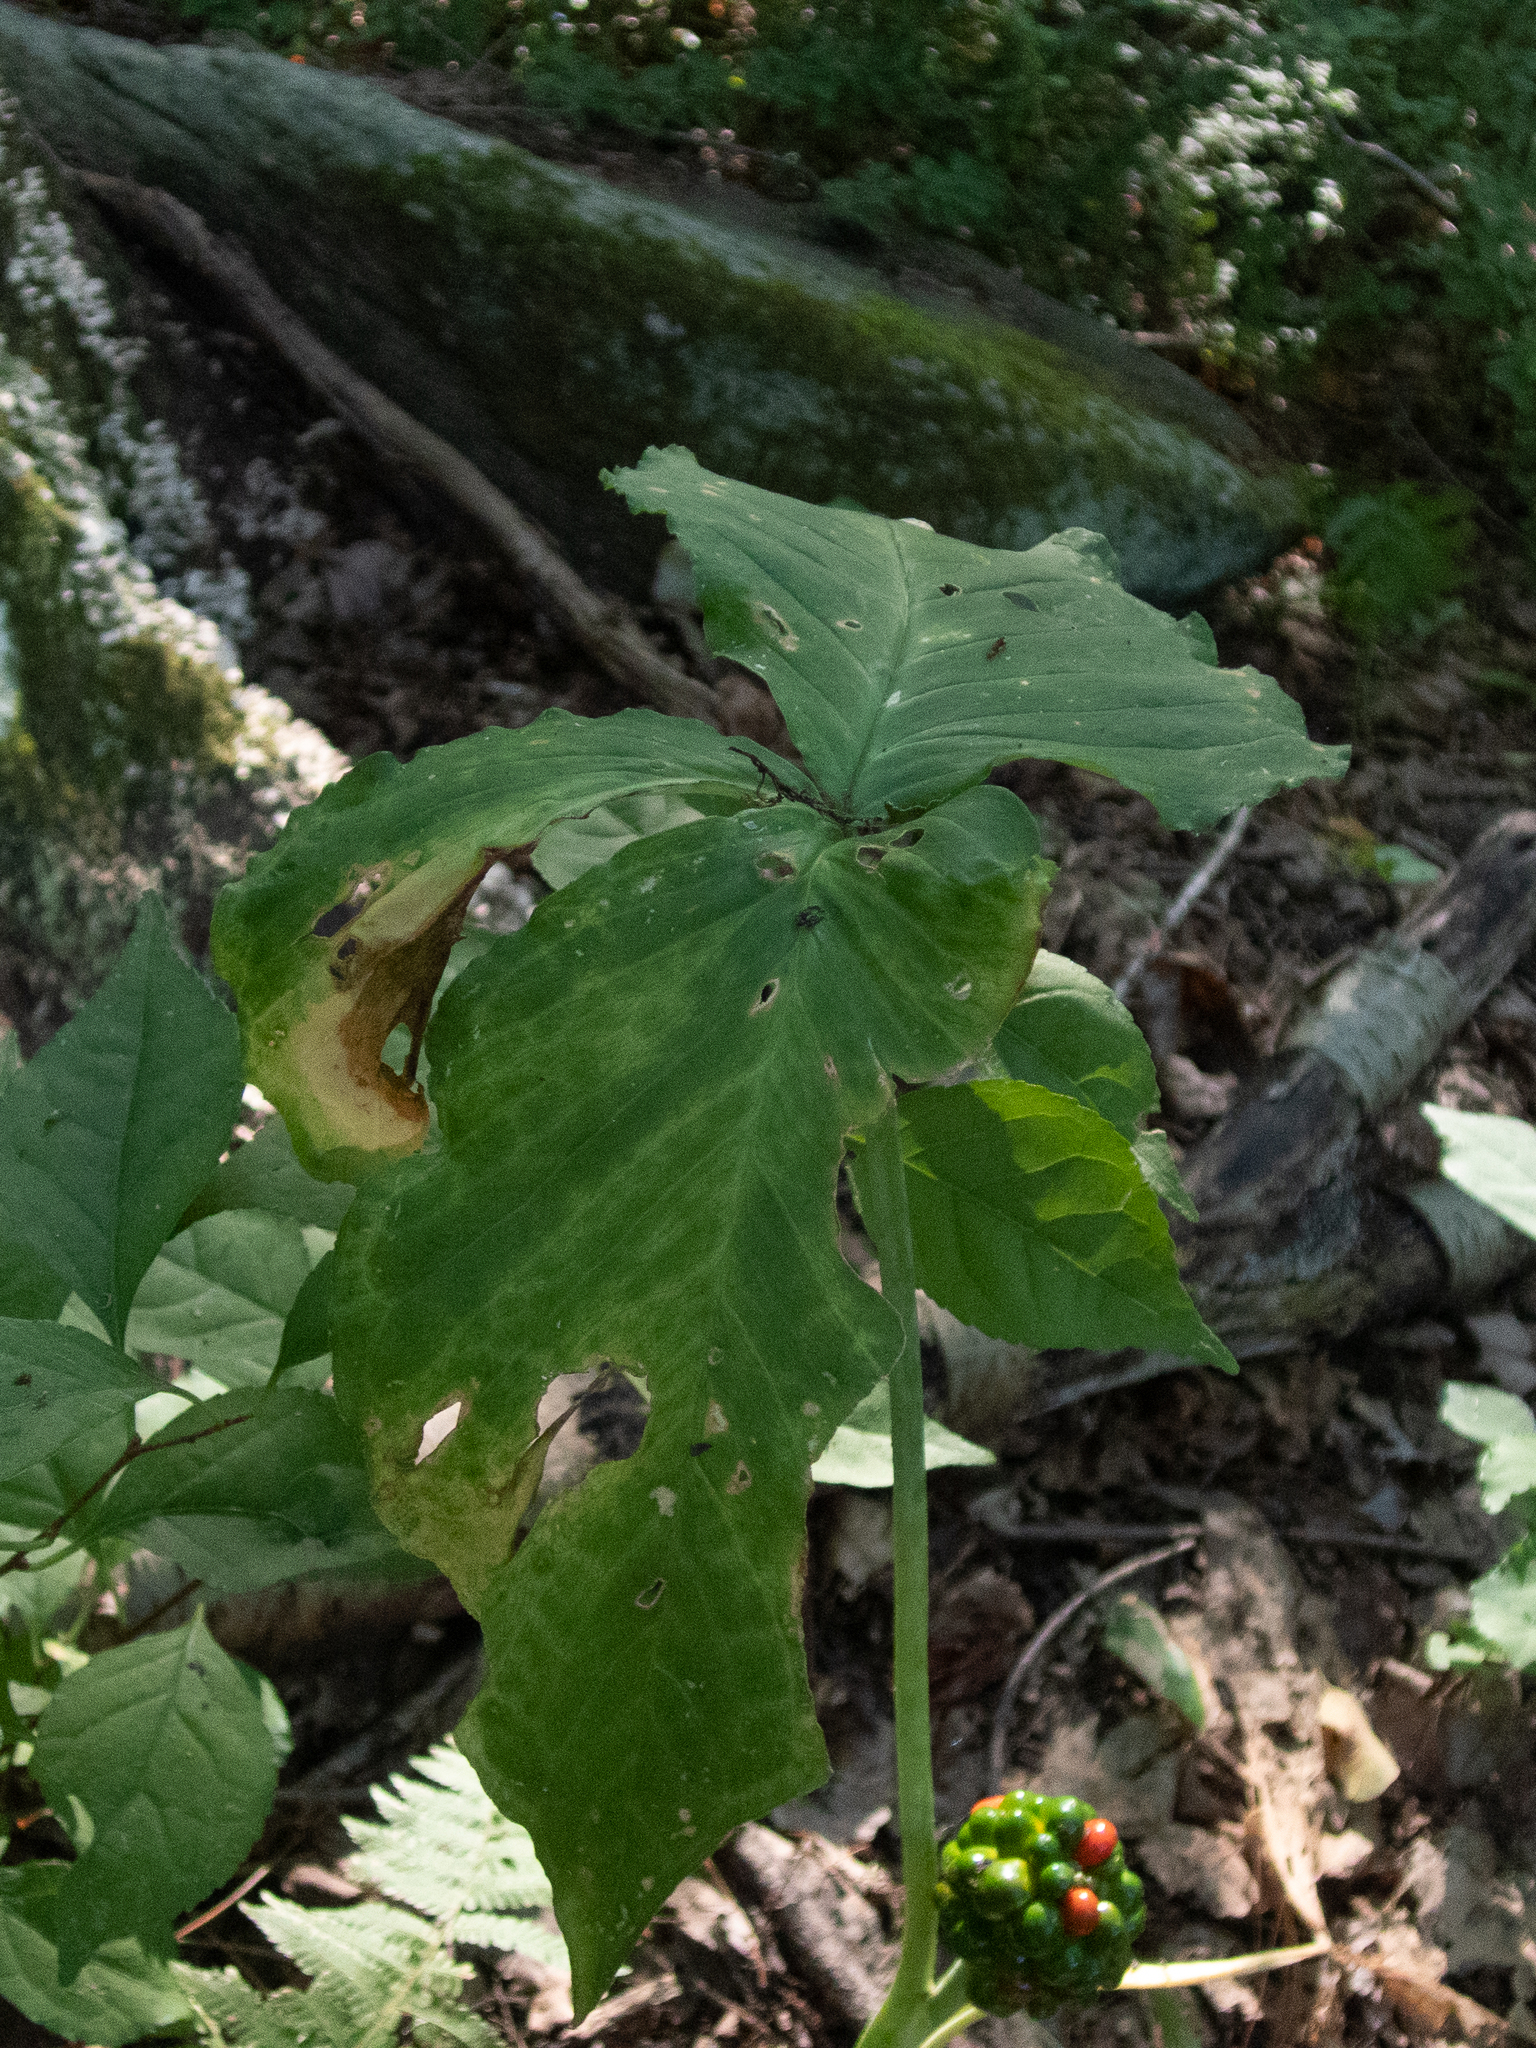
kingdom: Plantae
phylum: Tracheophyta
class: Liliopsida
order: Alismatales
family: Araceae
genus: Arisaema
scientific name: Arisaema triphyllum
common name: Jack-in-the-pulpit
